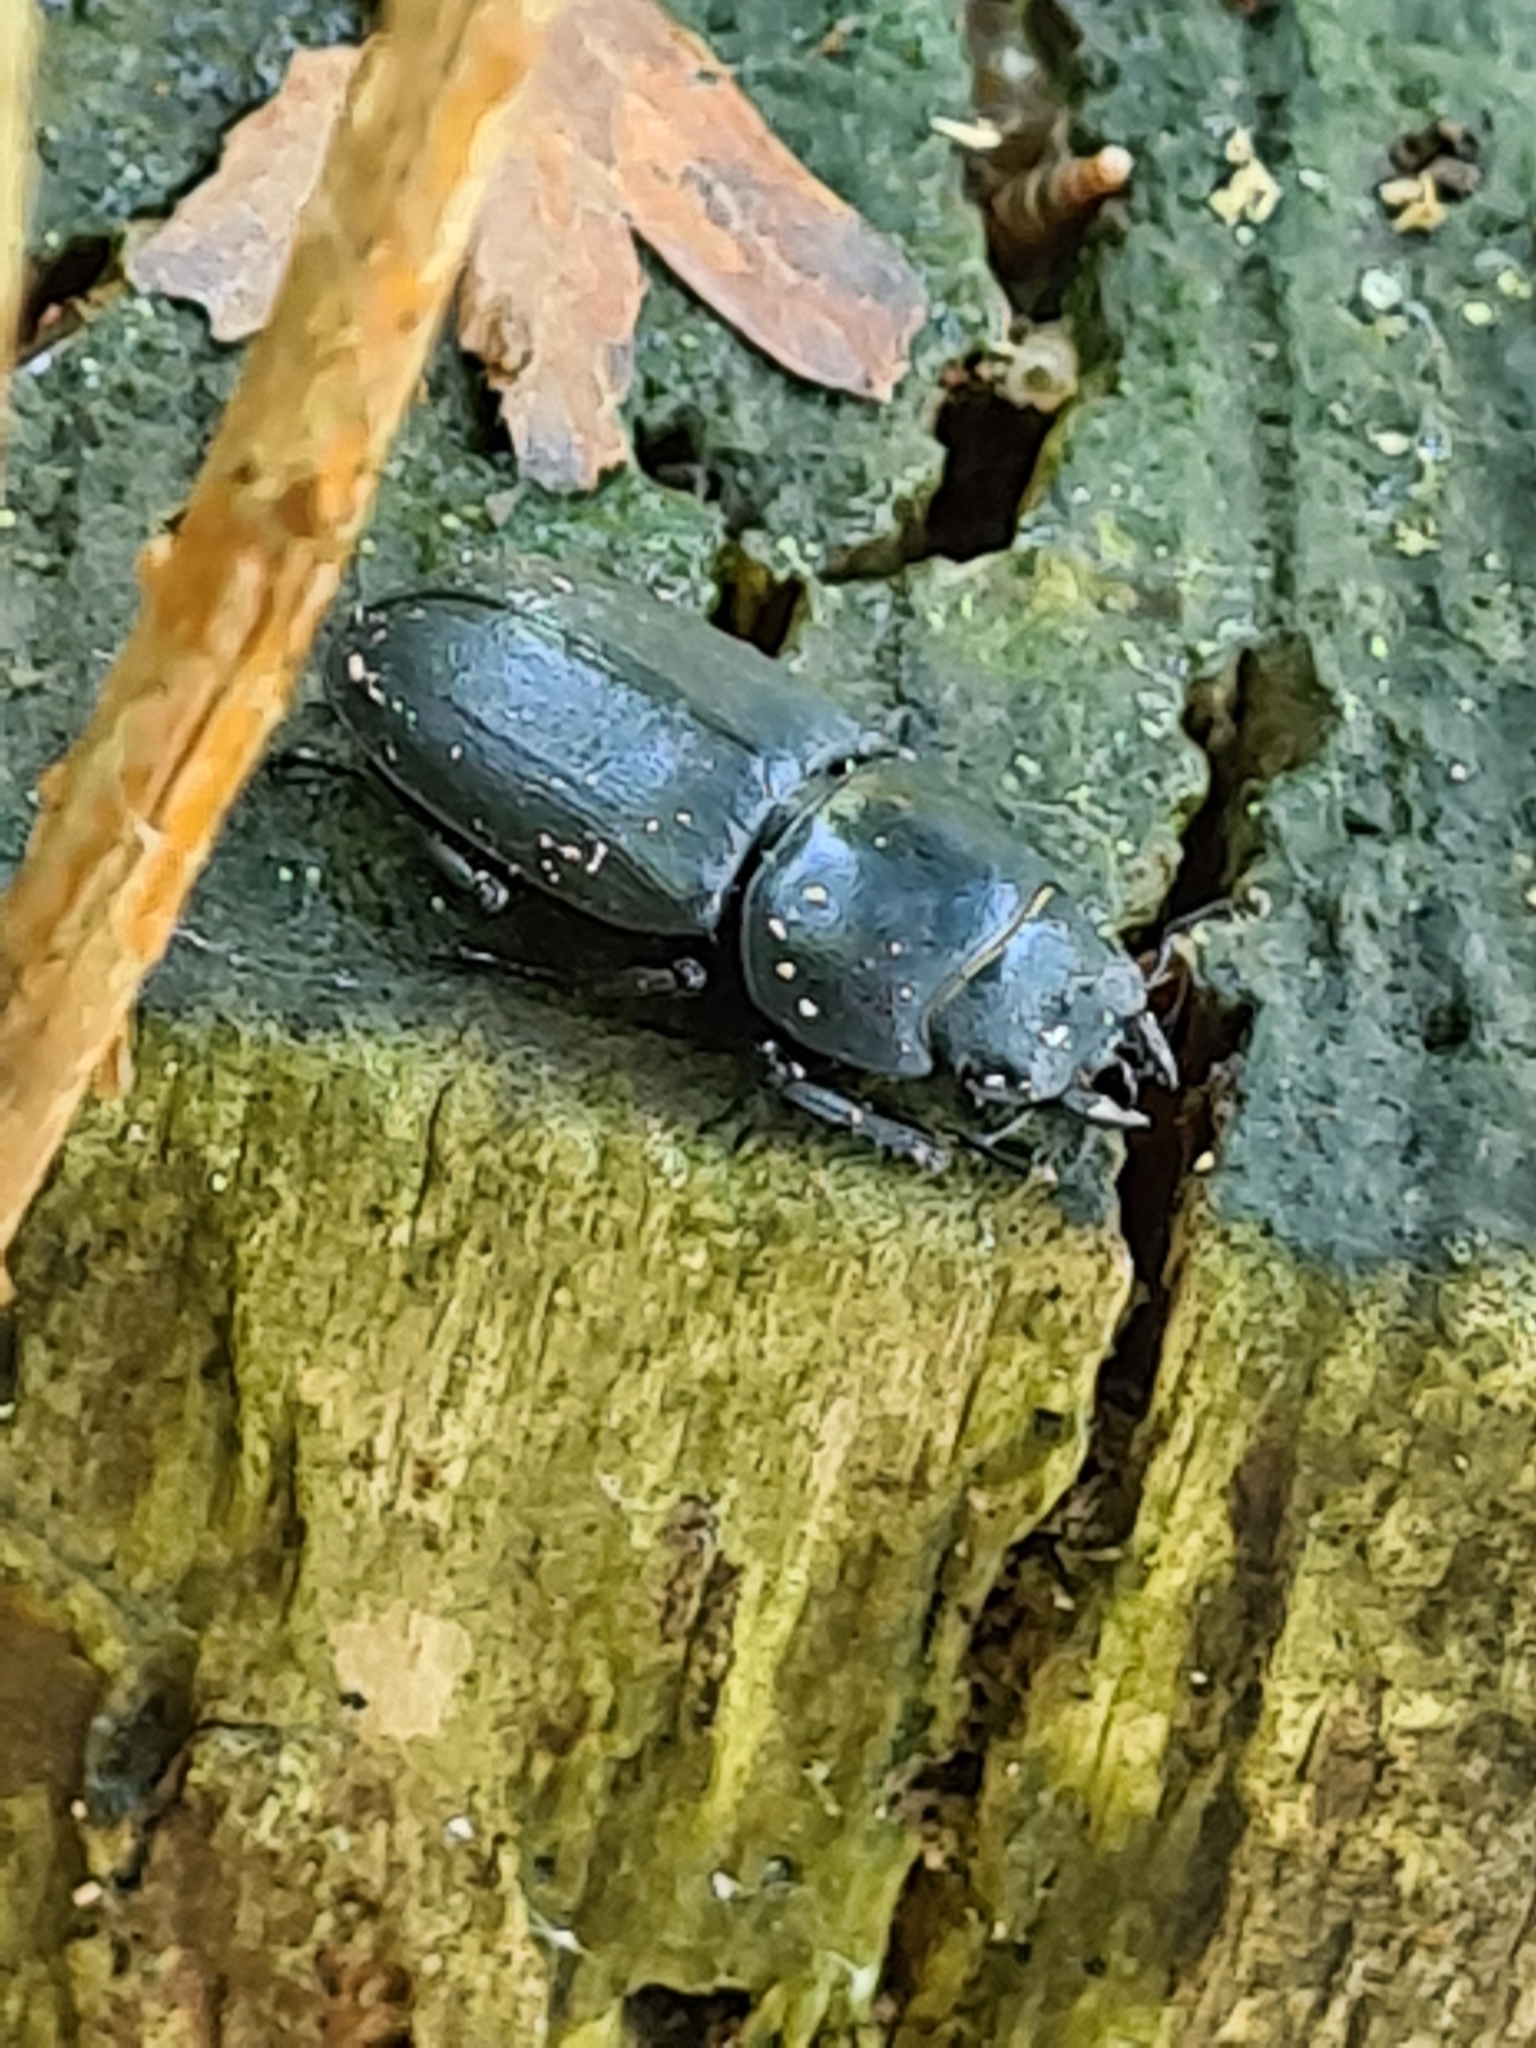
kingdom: Animalia
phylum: Arthropoda
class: Insecta
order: Coleoptera
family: Lucanidae
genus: Dorcus
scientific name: Dorcus parallelipipedus
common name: Lesser stag beetle
